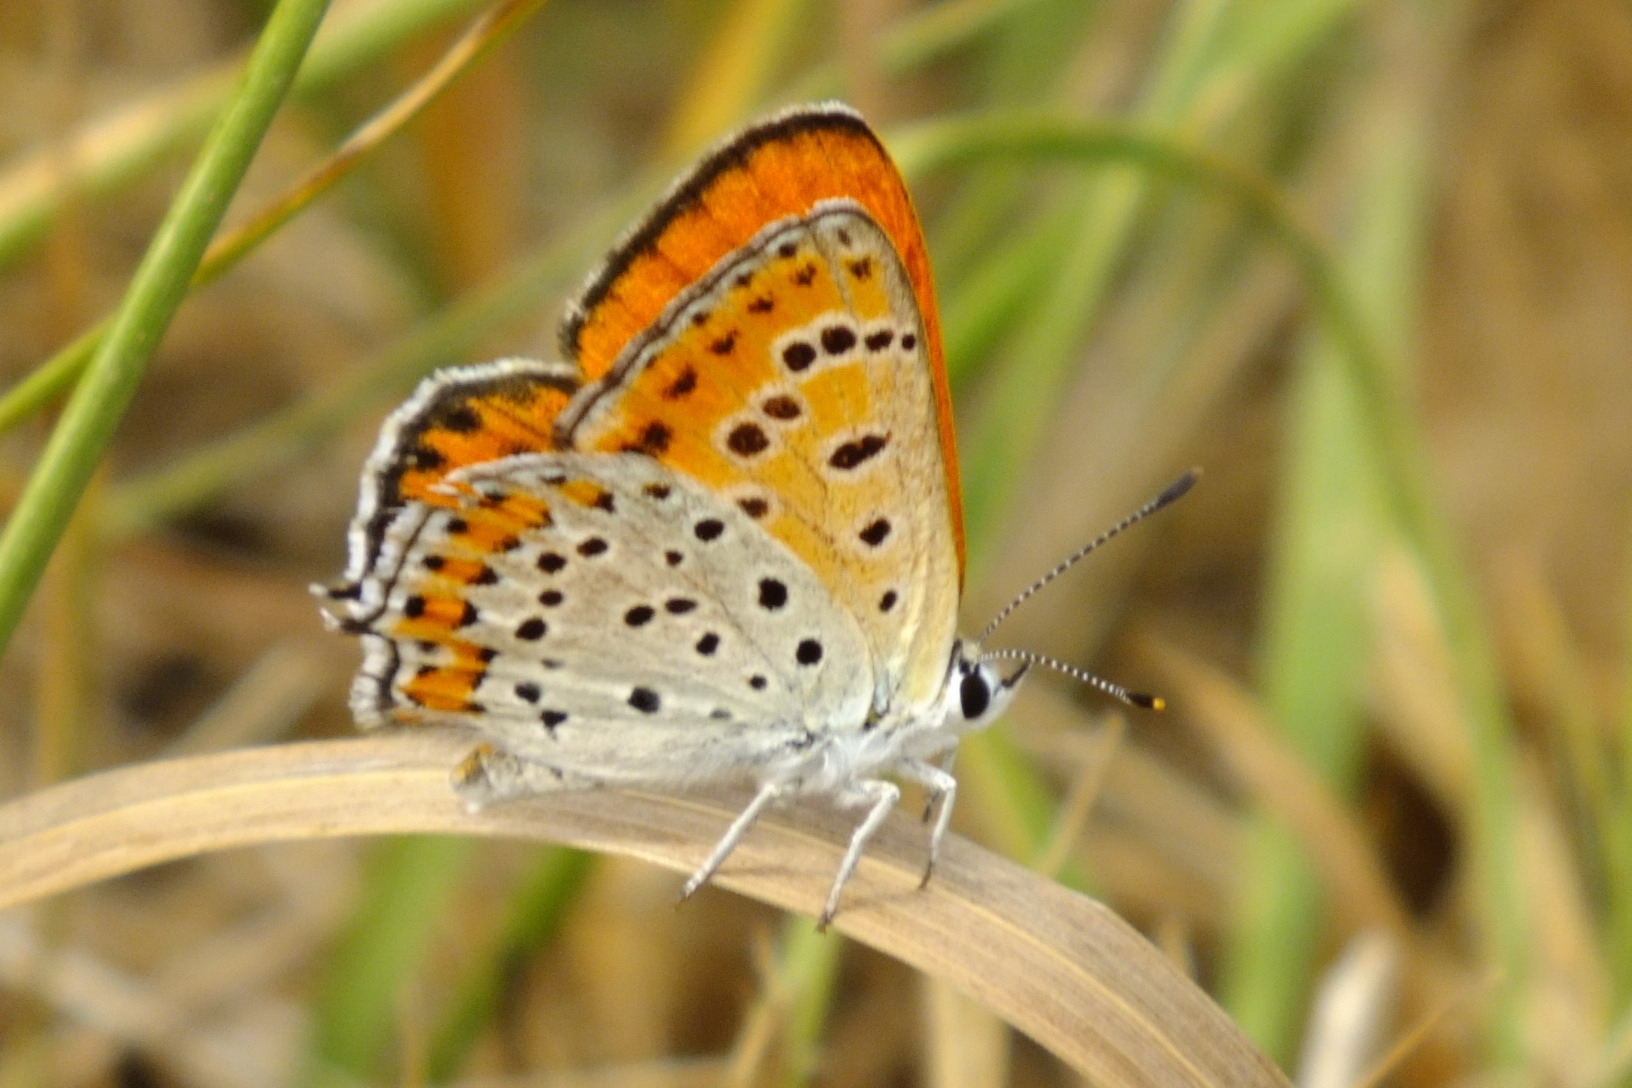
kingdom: Animalia
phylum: Arthropoda
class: Insecta
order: Lepidoptera
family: Lycaenidae
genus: Thersamonia
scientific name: Thersamonia thersamon
